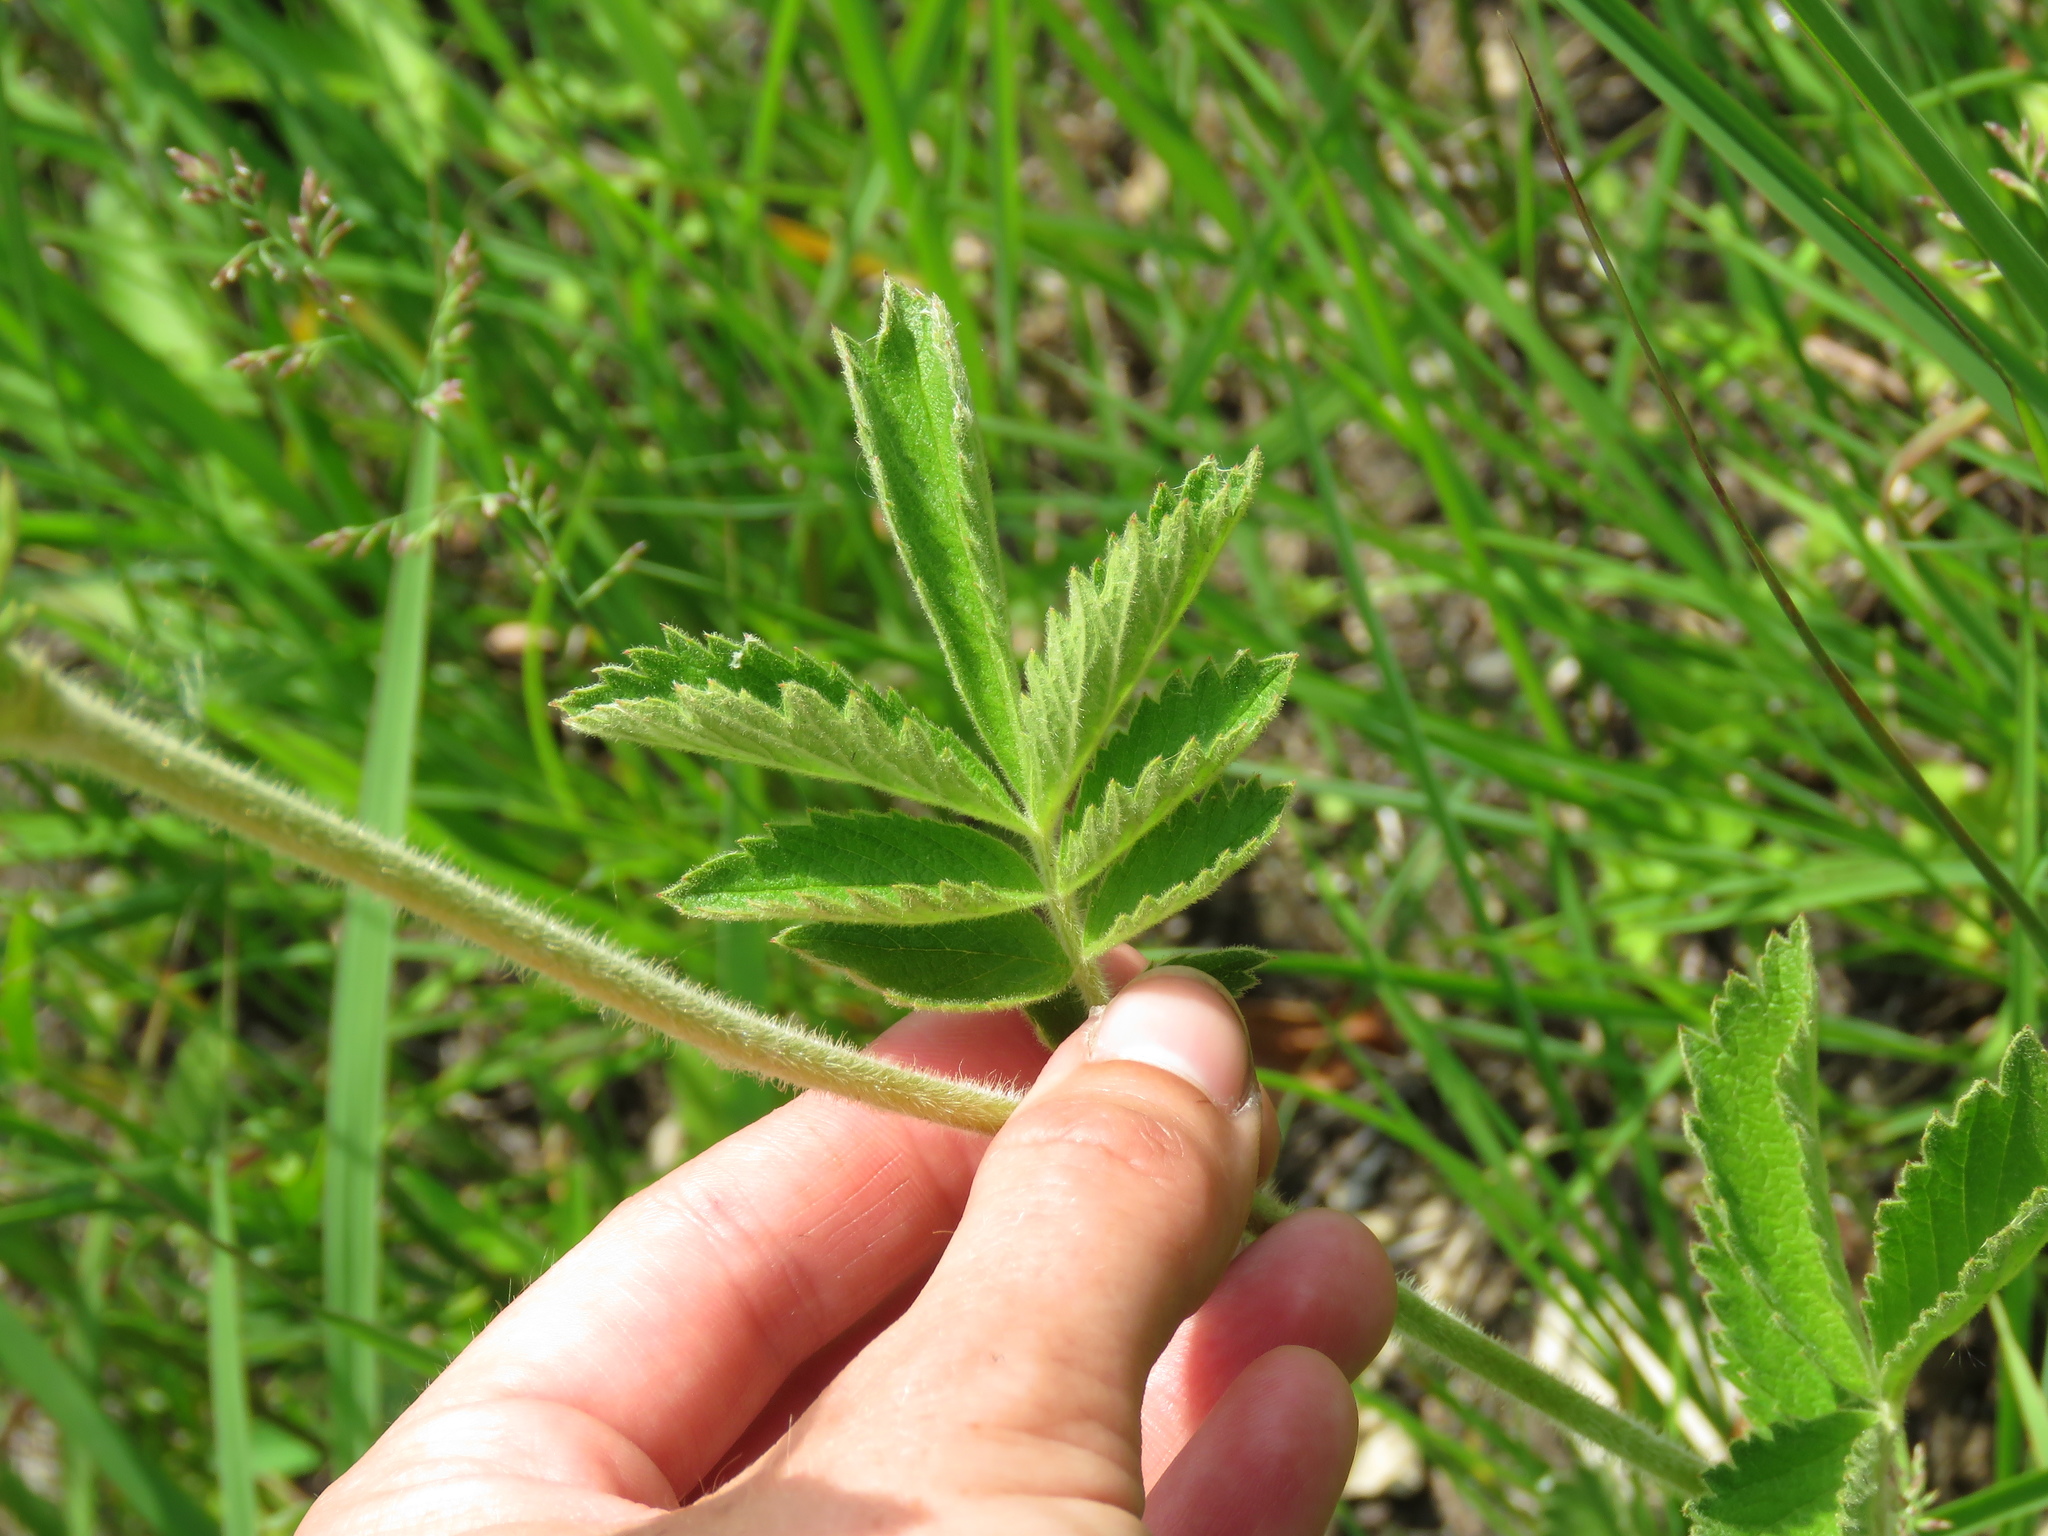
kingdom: Plantae
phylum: Tracheophyta
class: Magnoliopsida
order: Rosales
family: Rosaceae
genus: Drymocallis
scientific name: Drymocallis arguta
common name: Tall cinquefoil
